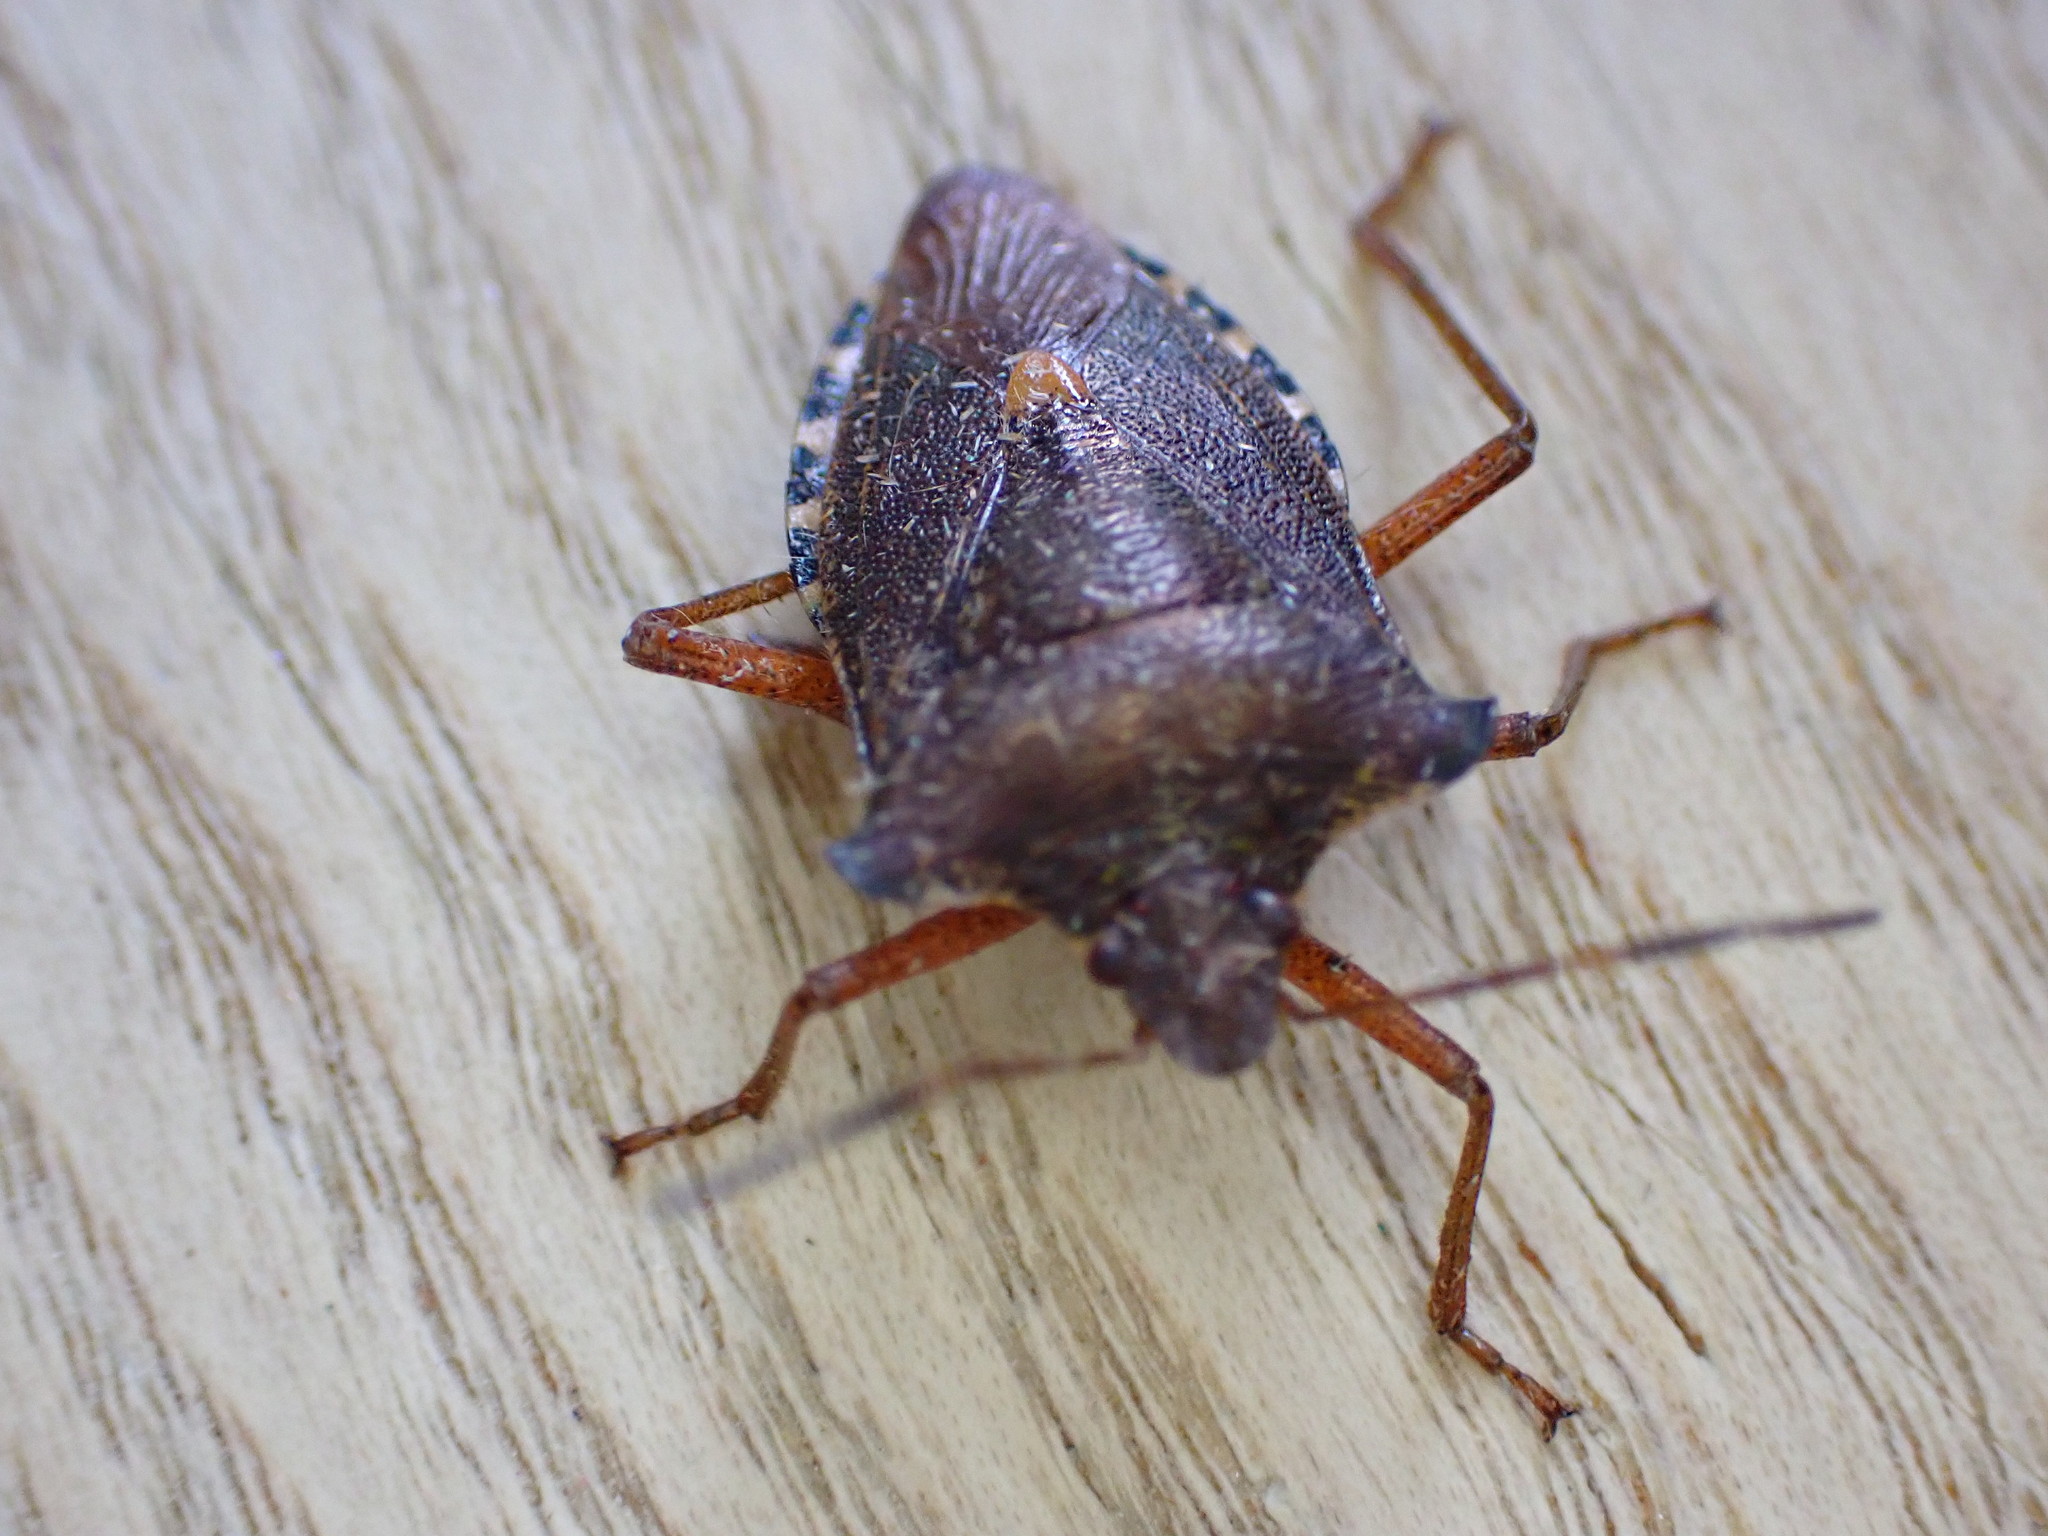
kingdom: Animalia
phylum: Arthropoda
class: Insecta
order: Hemiptera
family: Pentatomidae
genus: Pentatoma
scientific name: Pentatoma rufipes
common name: Forest bug
